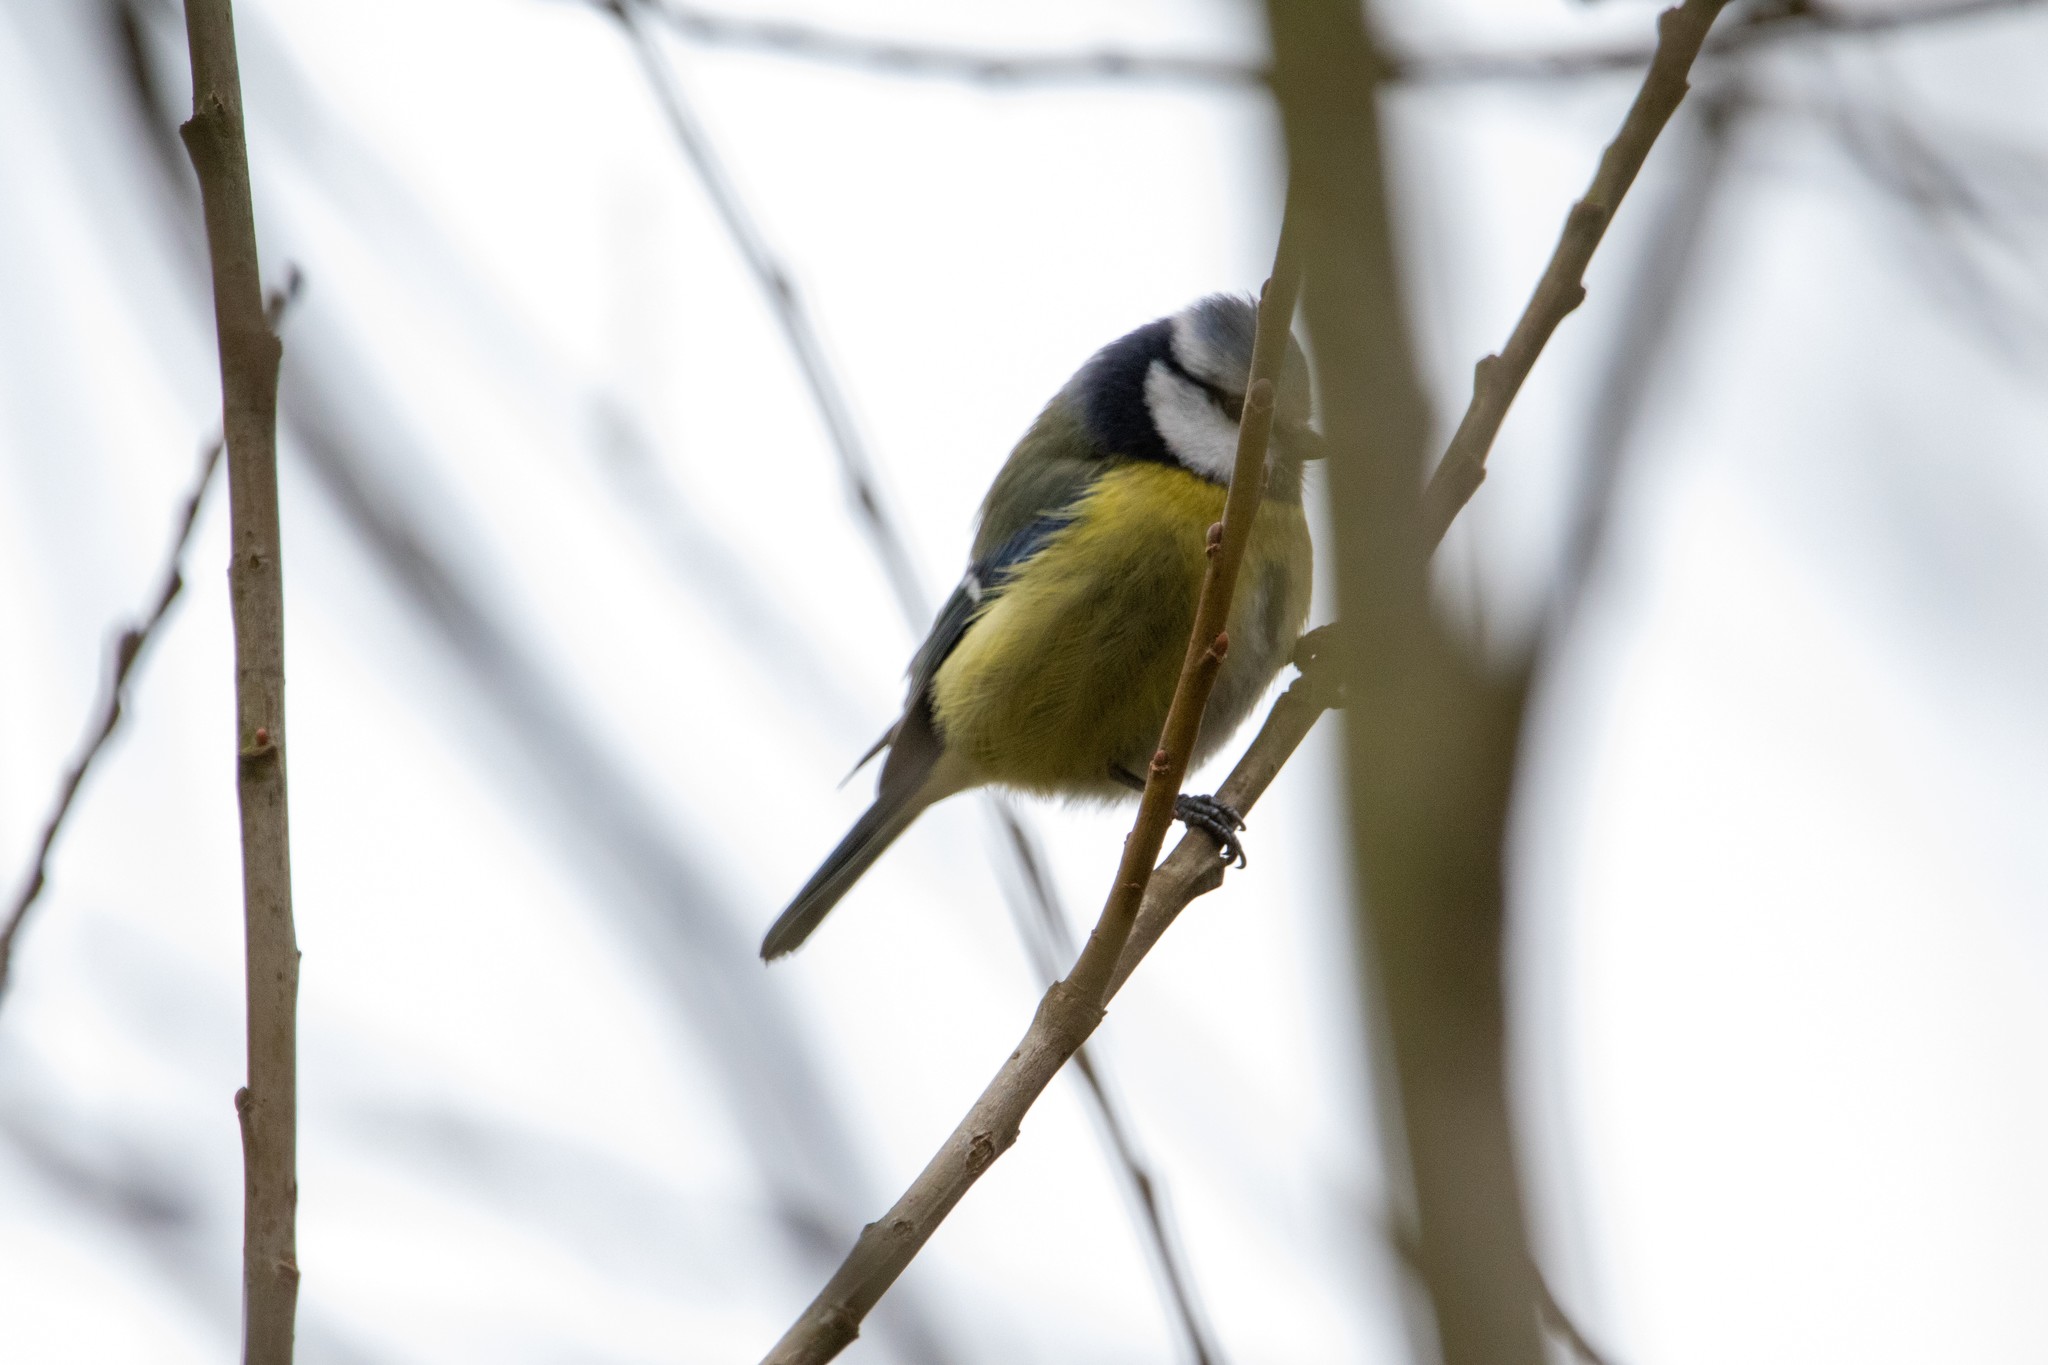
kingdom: Animalia
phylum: Chordata
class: Aves
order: Passeriformes
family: Paridae
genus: Cyanistes
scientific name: Cyanistes caeruleus
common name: Eurasian blue tit
